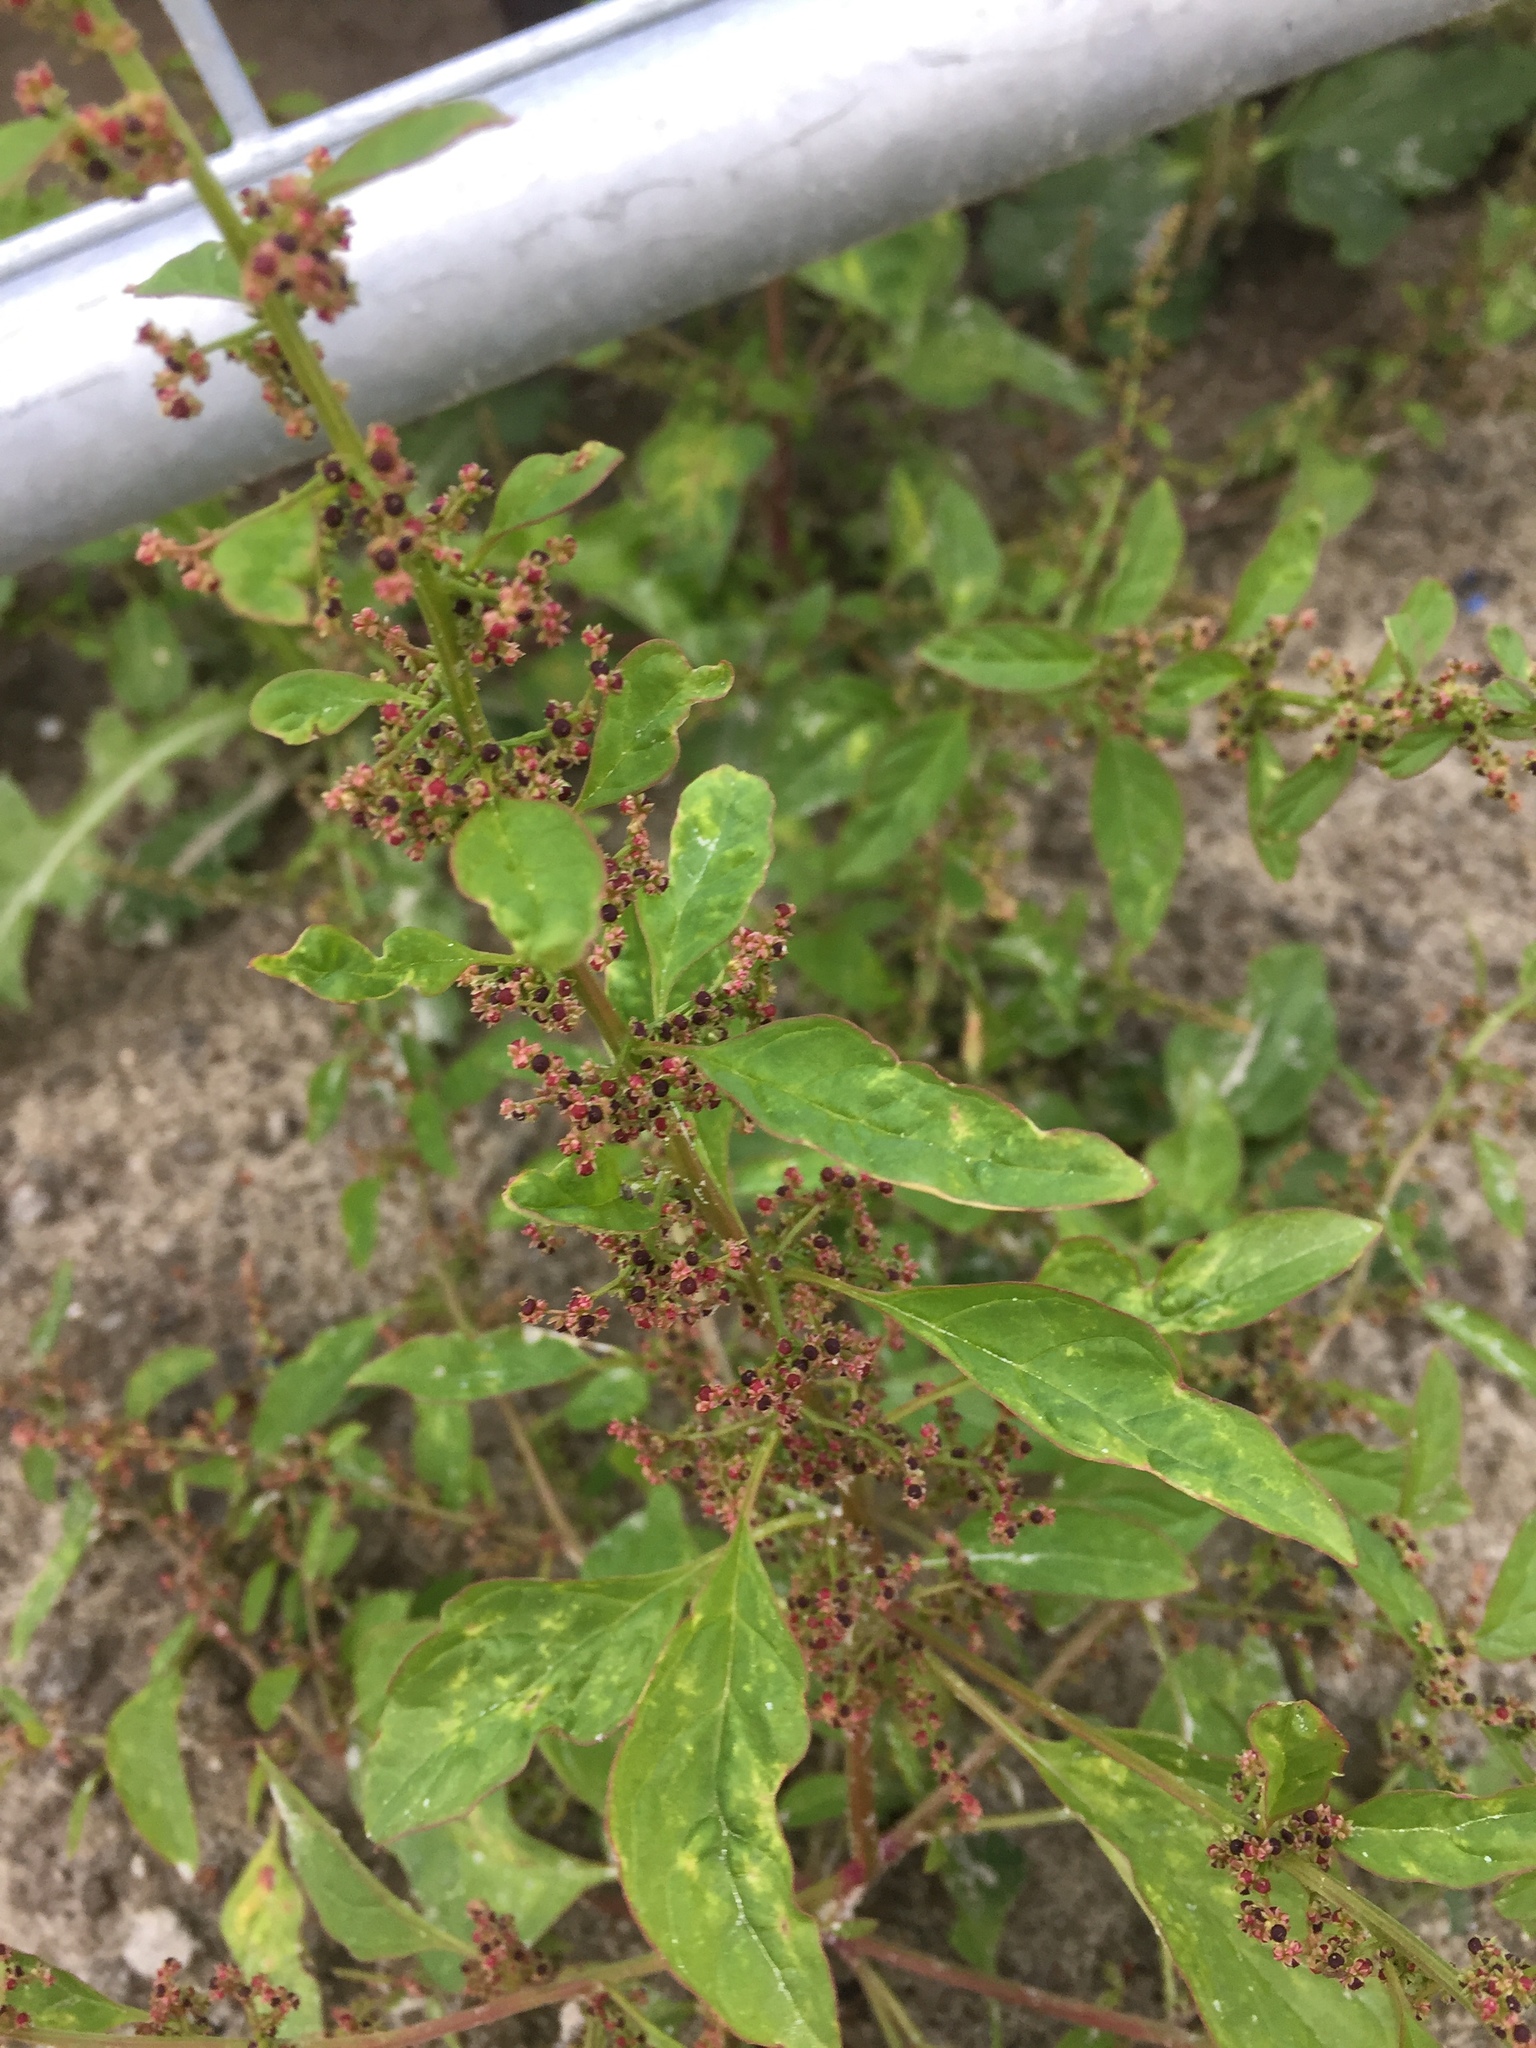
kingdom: Plantae
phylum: Tracheophyta
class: Magnoliopsida
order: Caryophyllales
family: Amaranthaceae
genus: Lipandra
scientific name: Lipandra polysperma
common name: Many-seed goosefoot
